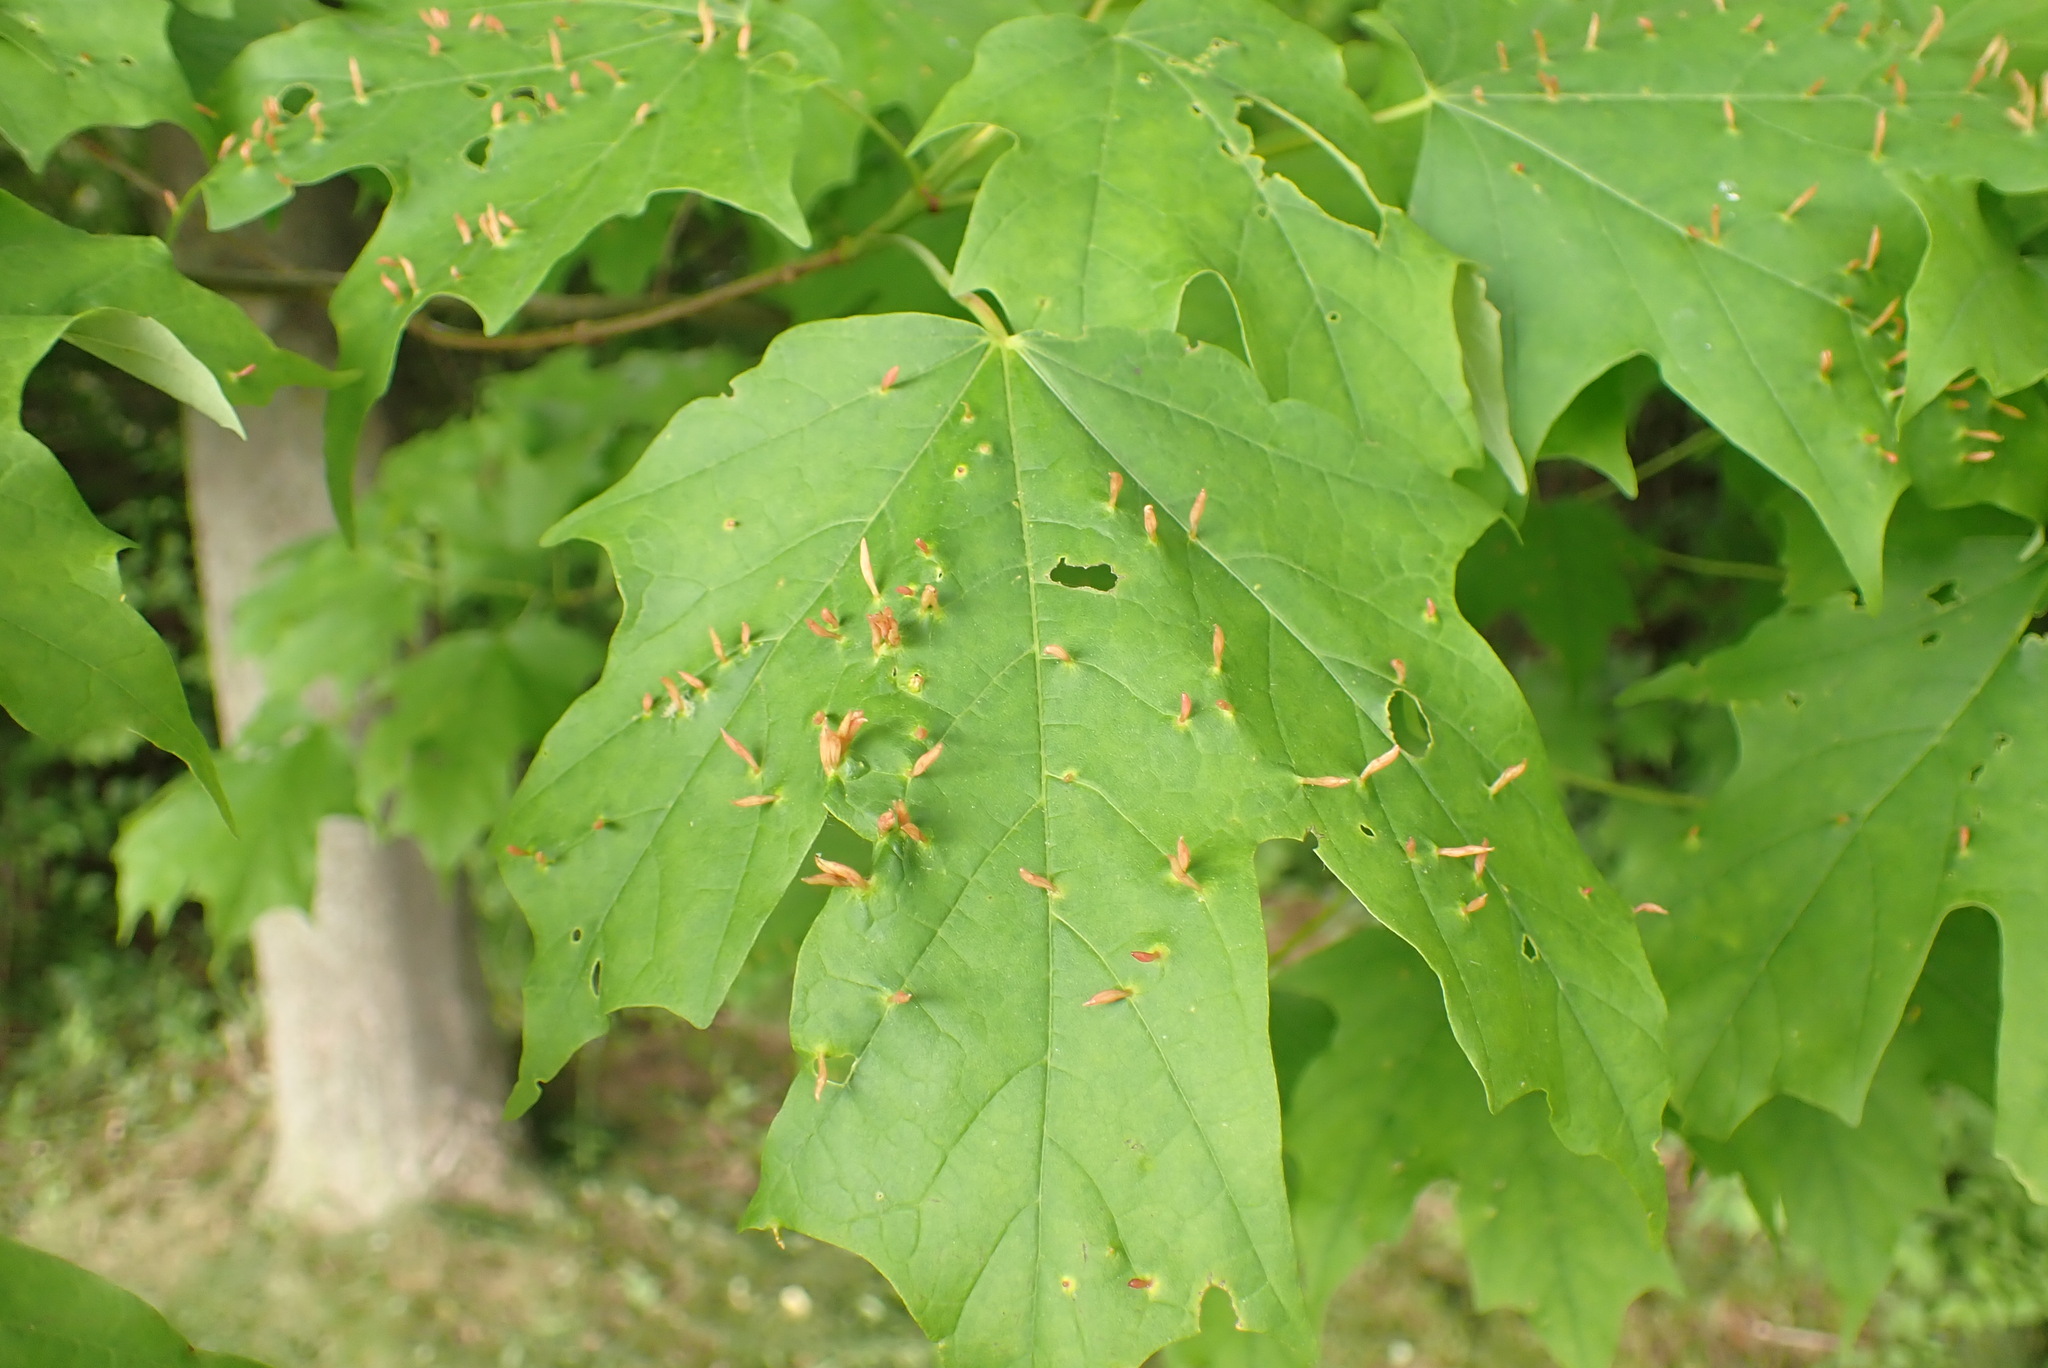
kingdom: Animalia
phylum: Arthropoda
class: Arachnida
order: Trombidiformes
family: Eriophyidae
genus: Vasates
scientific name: Vasates aceriscrumena
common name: Maple spindle gall mite
